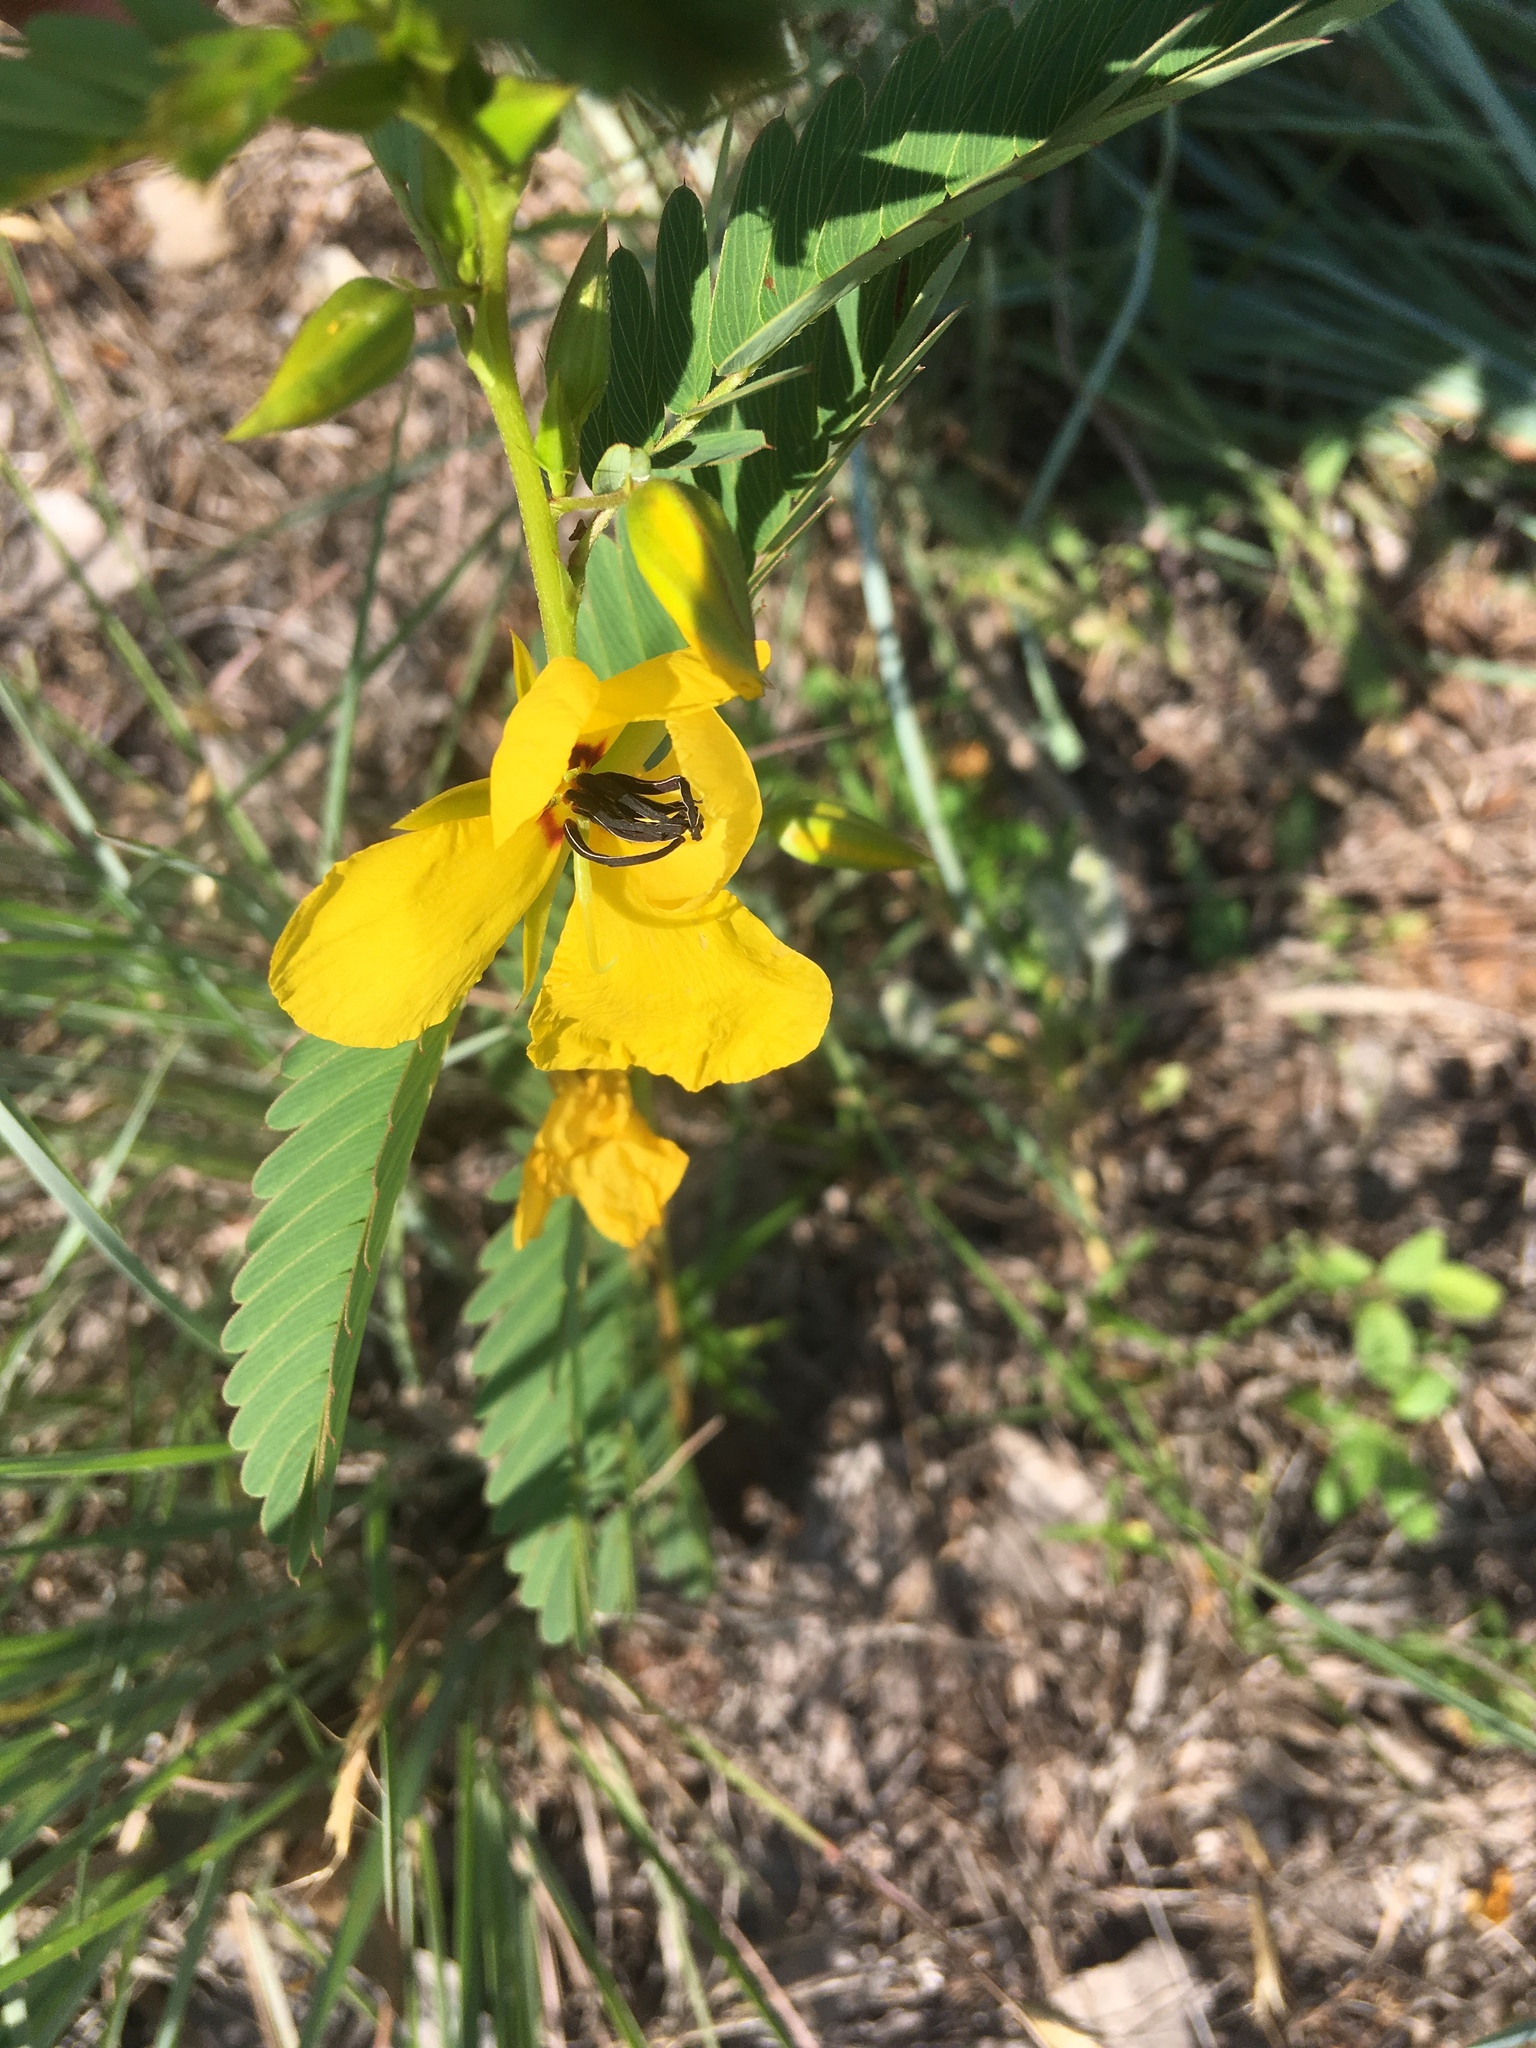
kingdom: Plantae
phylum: Tracheophyta
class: Magnoliopsida
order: Fabales
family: Fabaceae
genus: Chamaecrista
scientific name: Chamaecrista fasciculata
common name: Golden cassia
